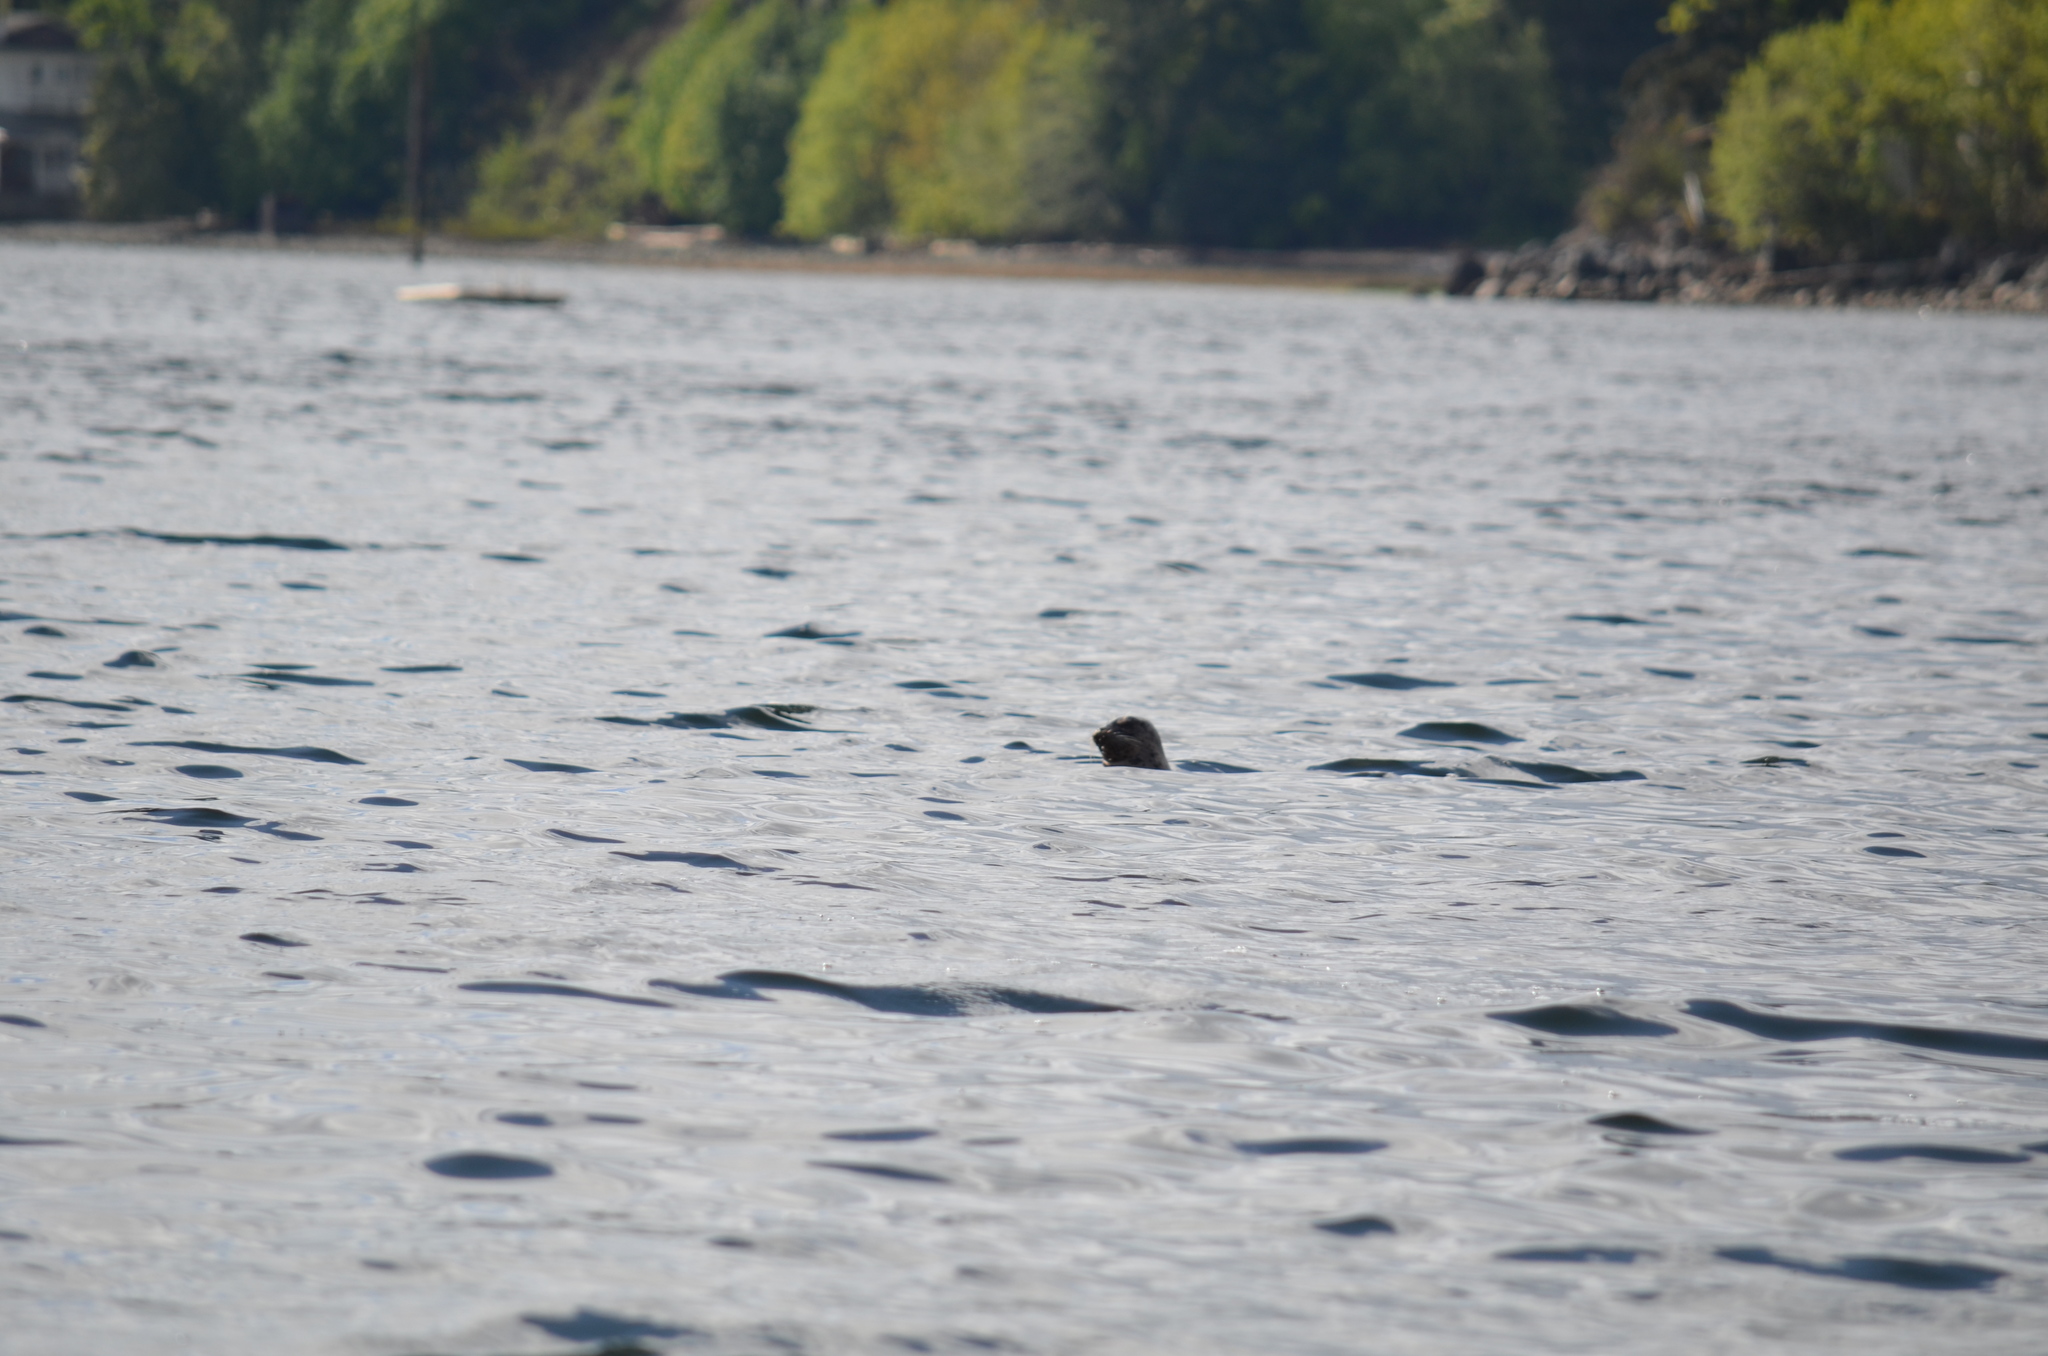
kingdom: Animalia
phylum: Chordata
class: Mammalia
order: Carnivora
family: Phocidae
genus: Phoca
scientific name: Phoca vitulina
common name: Harbor seal
